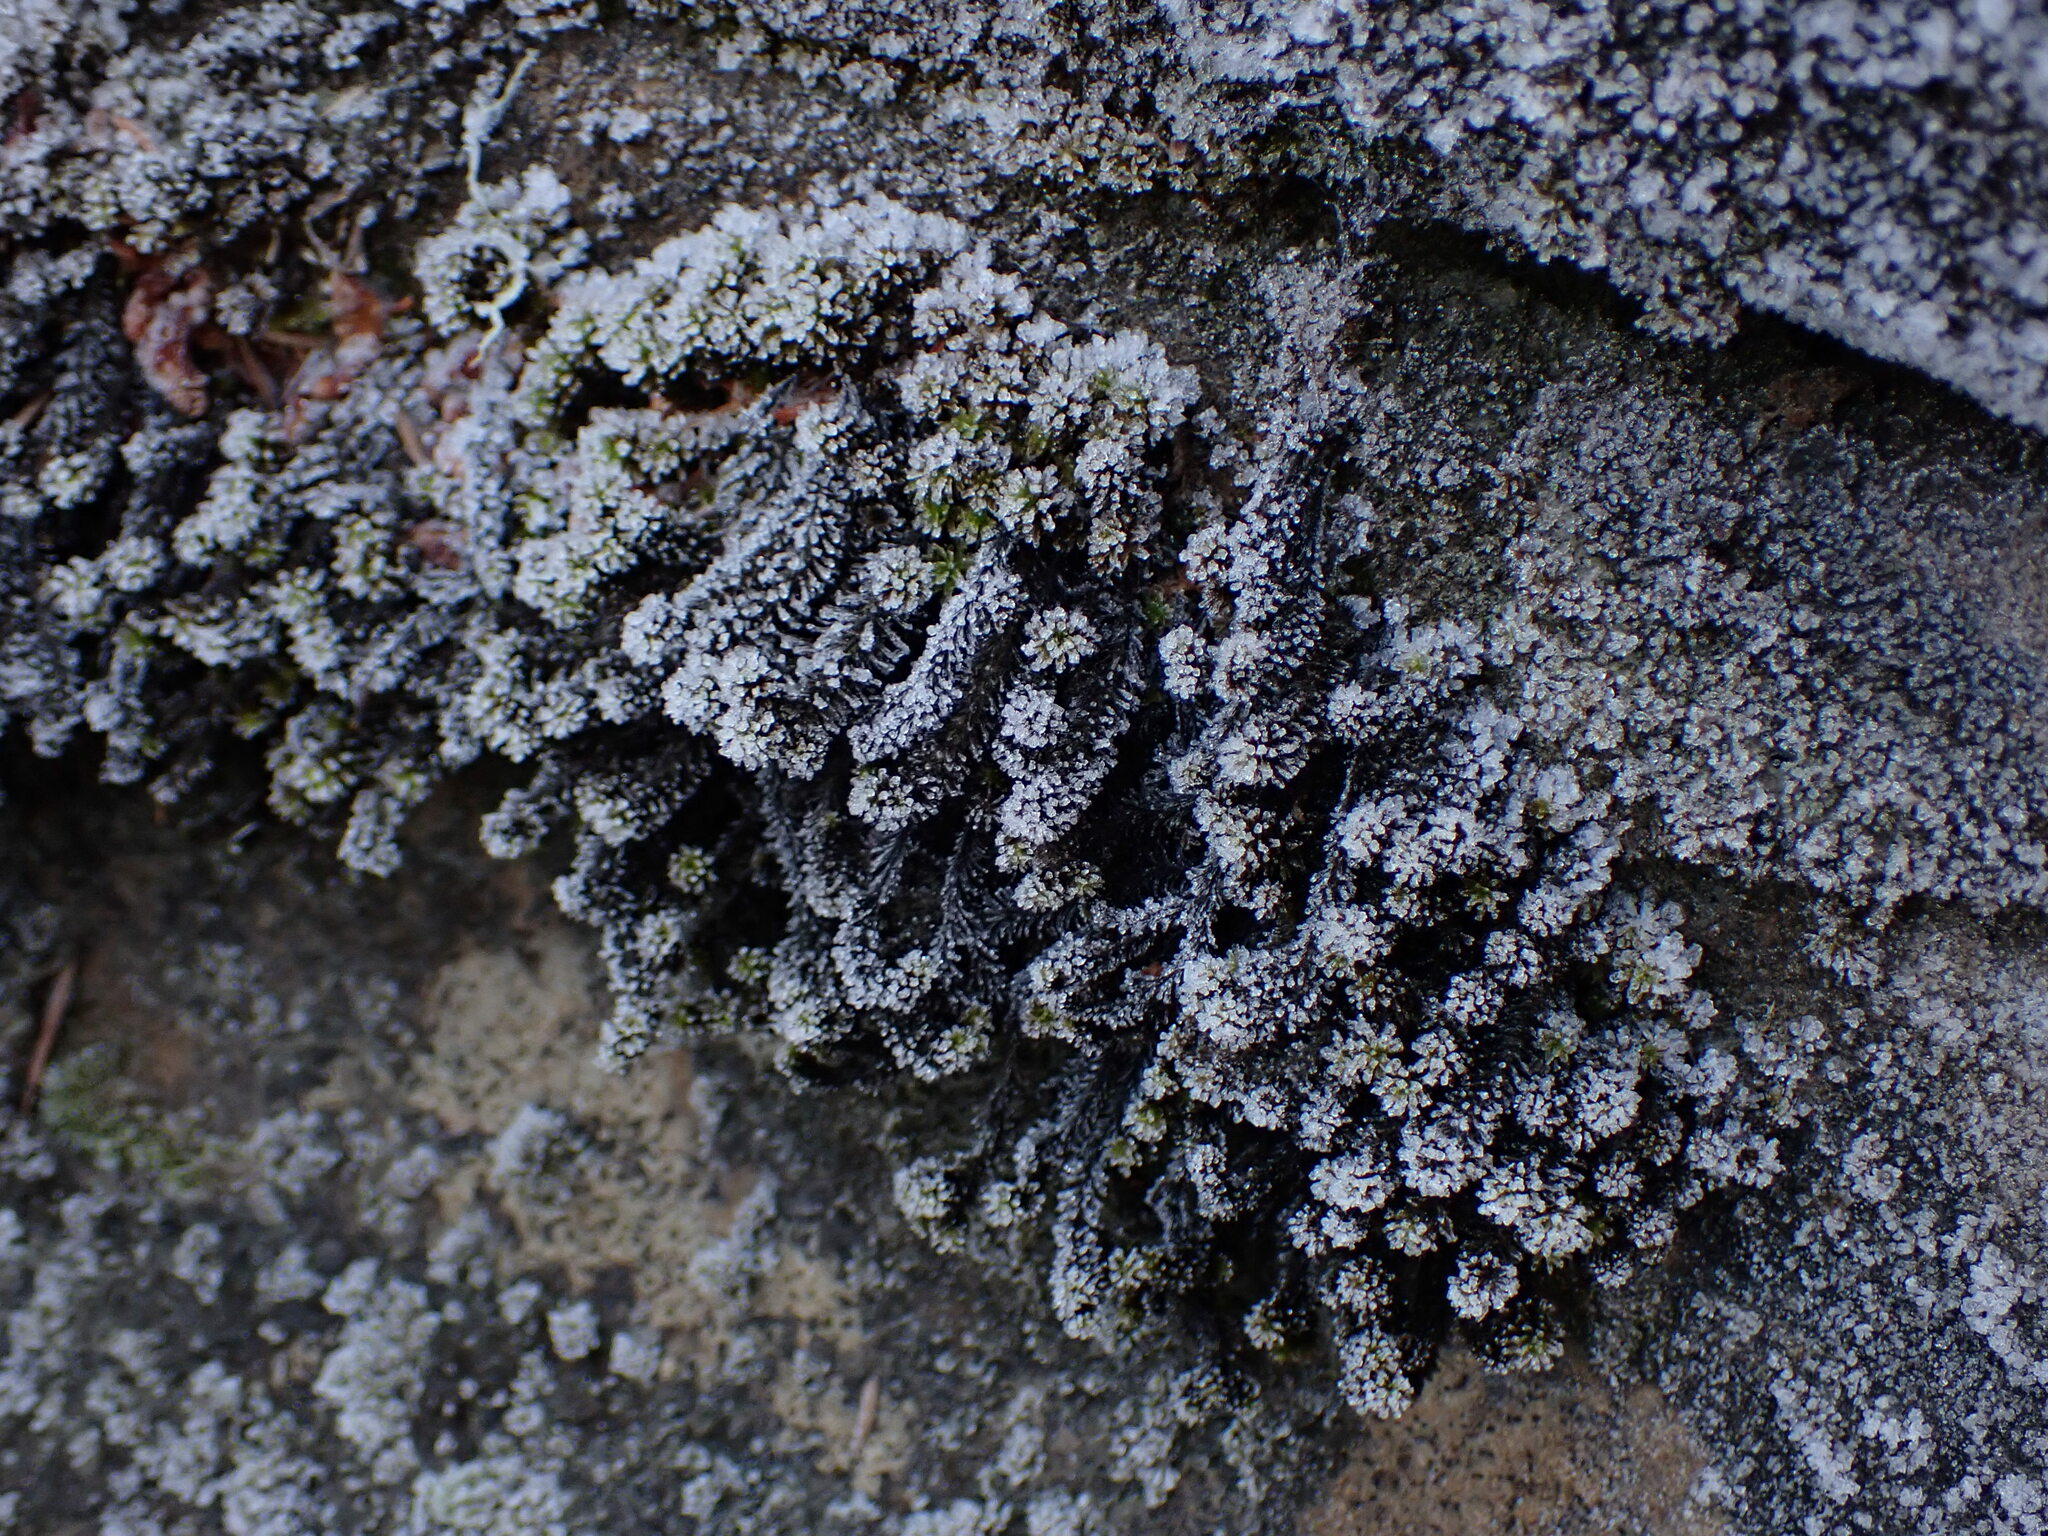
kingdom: Plantae
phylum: Bryophyta
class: Bryopsida
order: Scouleriales
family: Scouleriaceae
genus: Scouleria
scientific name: Scouleria aquatica
